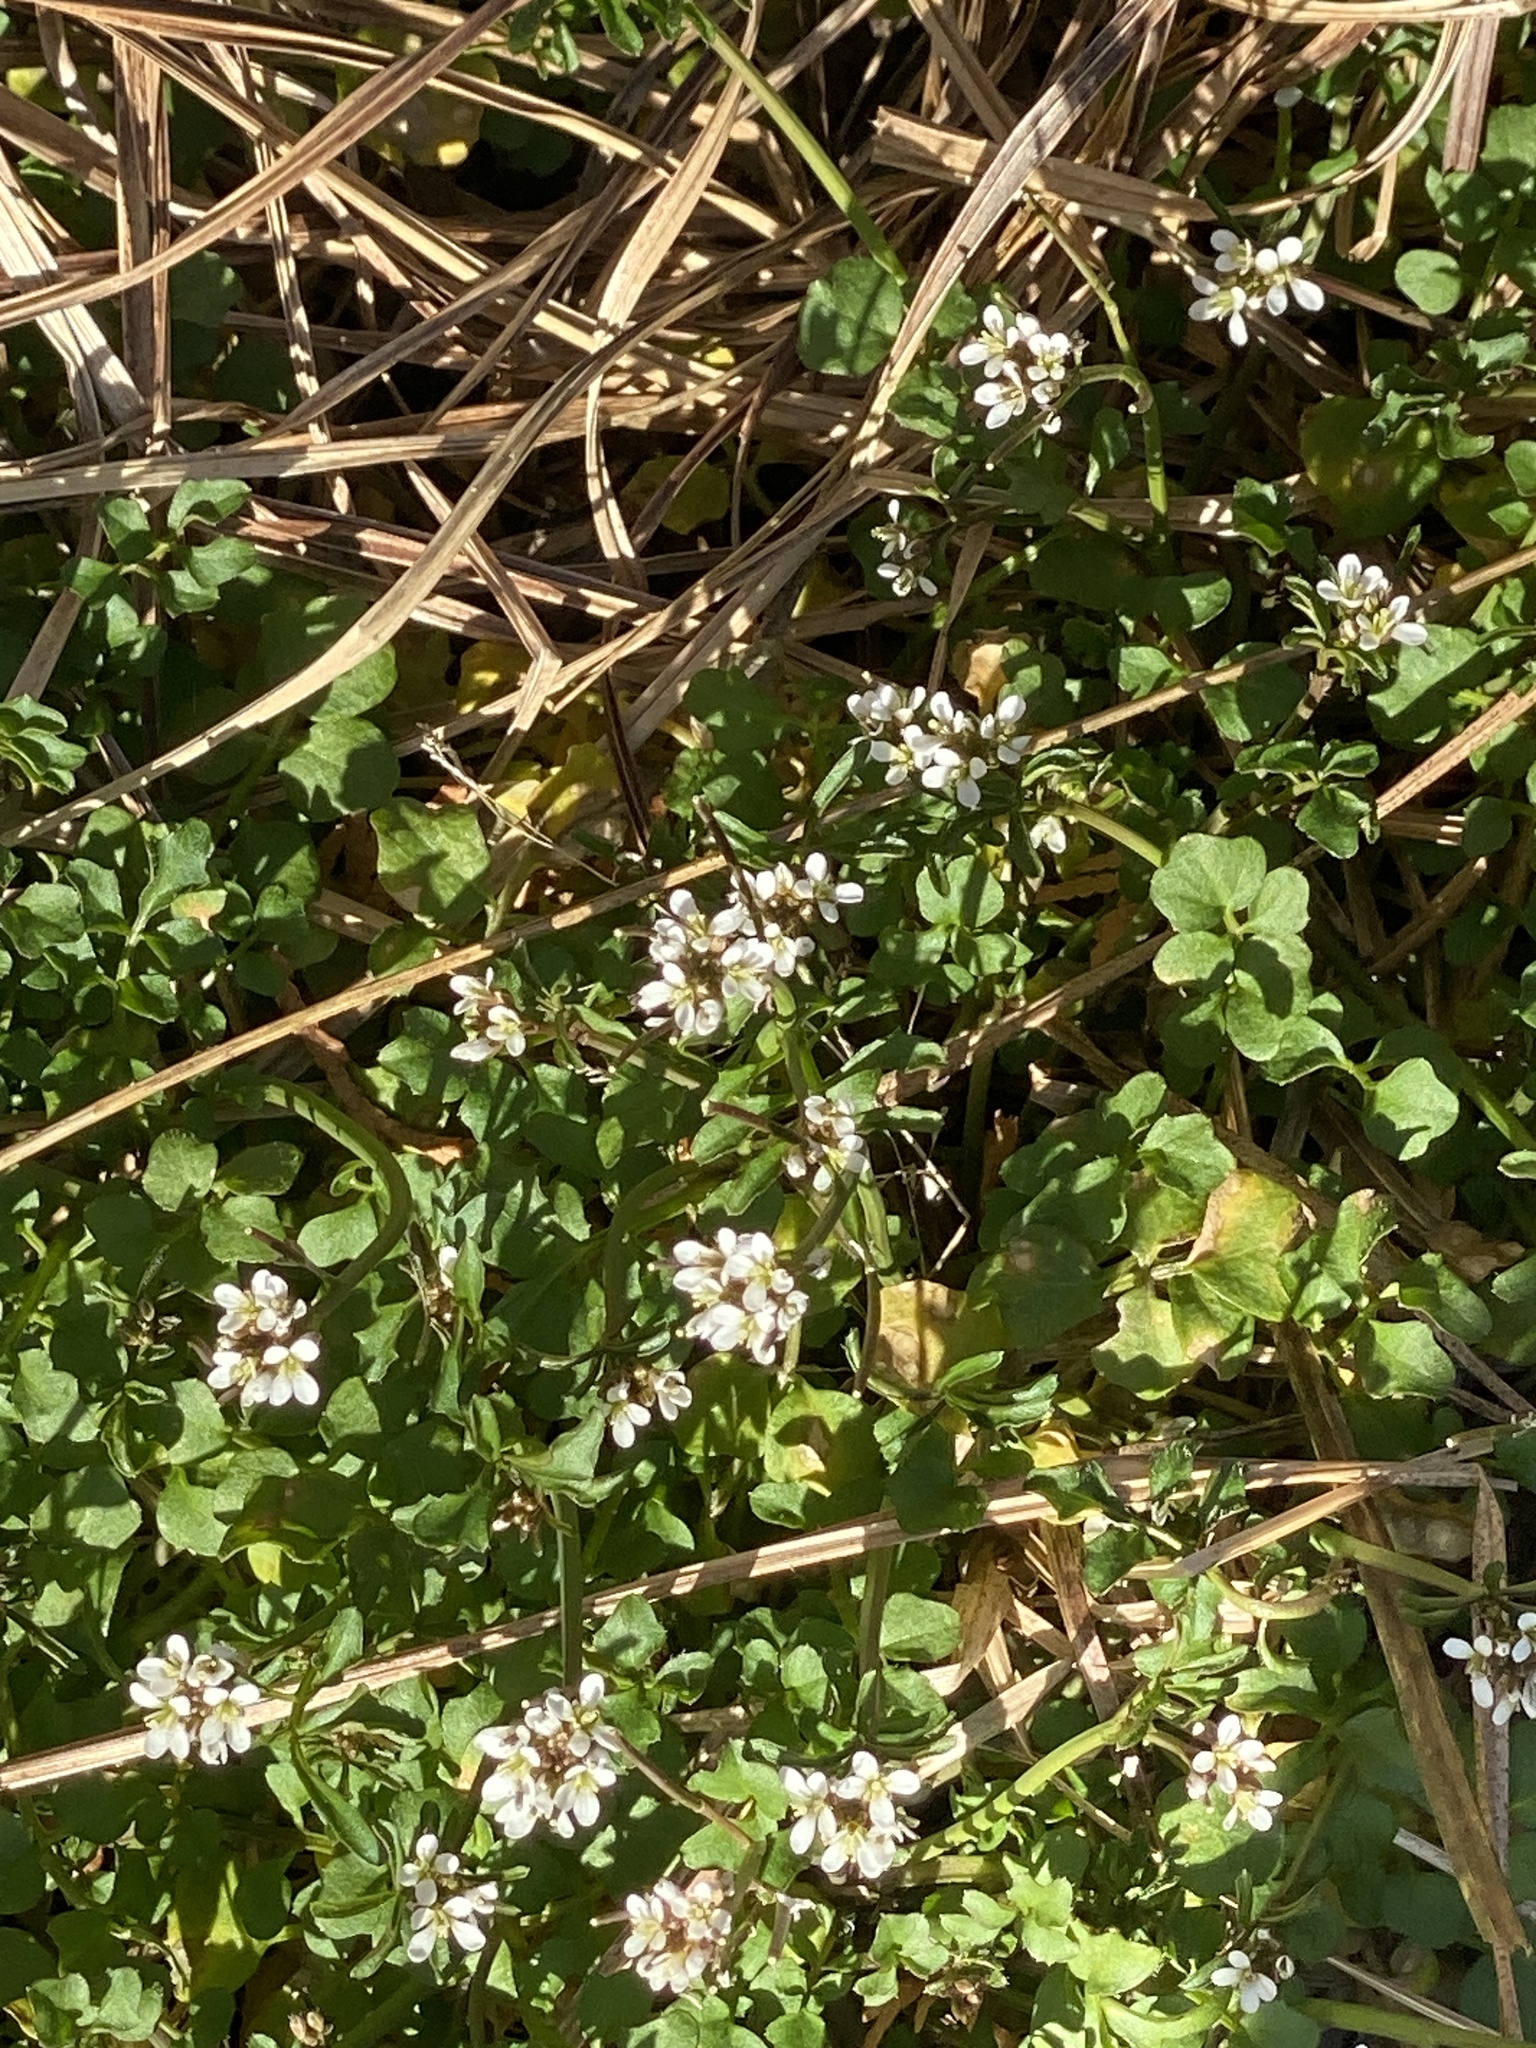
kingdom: Plantae
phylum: Tracheophyta
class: Magnoliopsida
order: Brassicales
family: Brassicaceae
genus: Cardamine
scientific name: Cardamine hirsuta
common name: Hairy bittercress
